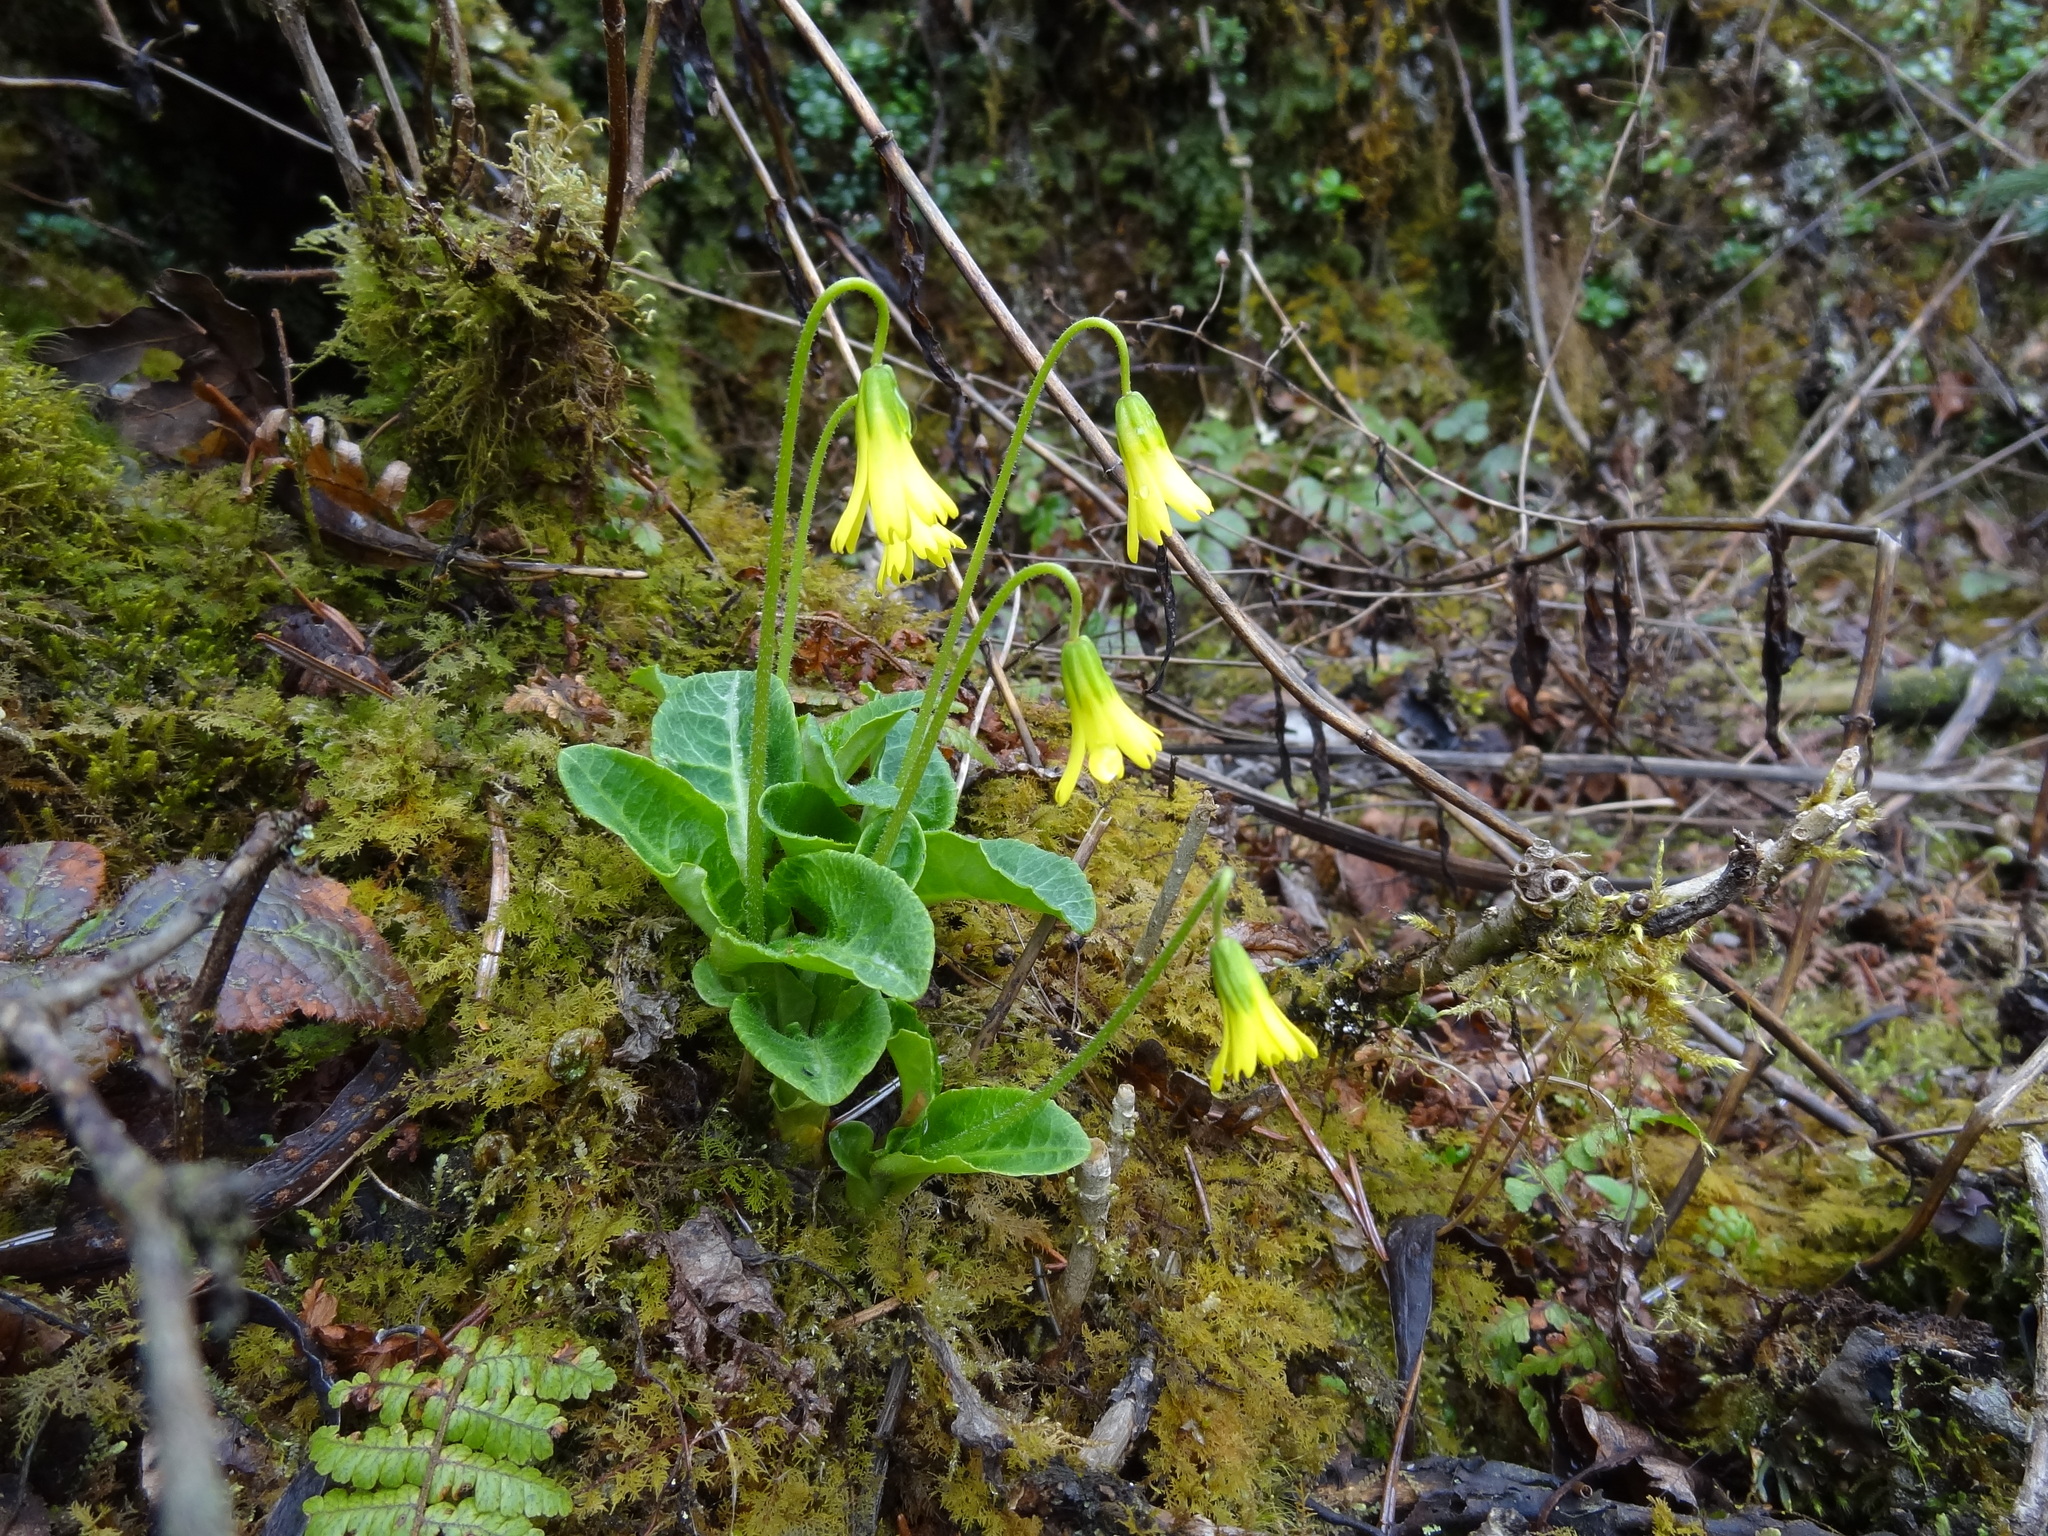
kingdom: Plantae
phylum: Tracheophyta
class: Magnoliopsida
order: Ericales
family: Primulaceae
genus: Bryocarpum
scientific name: Bryocarpum himalaicum
